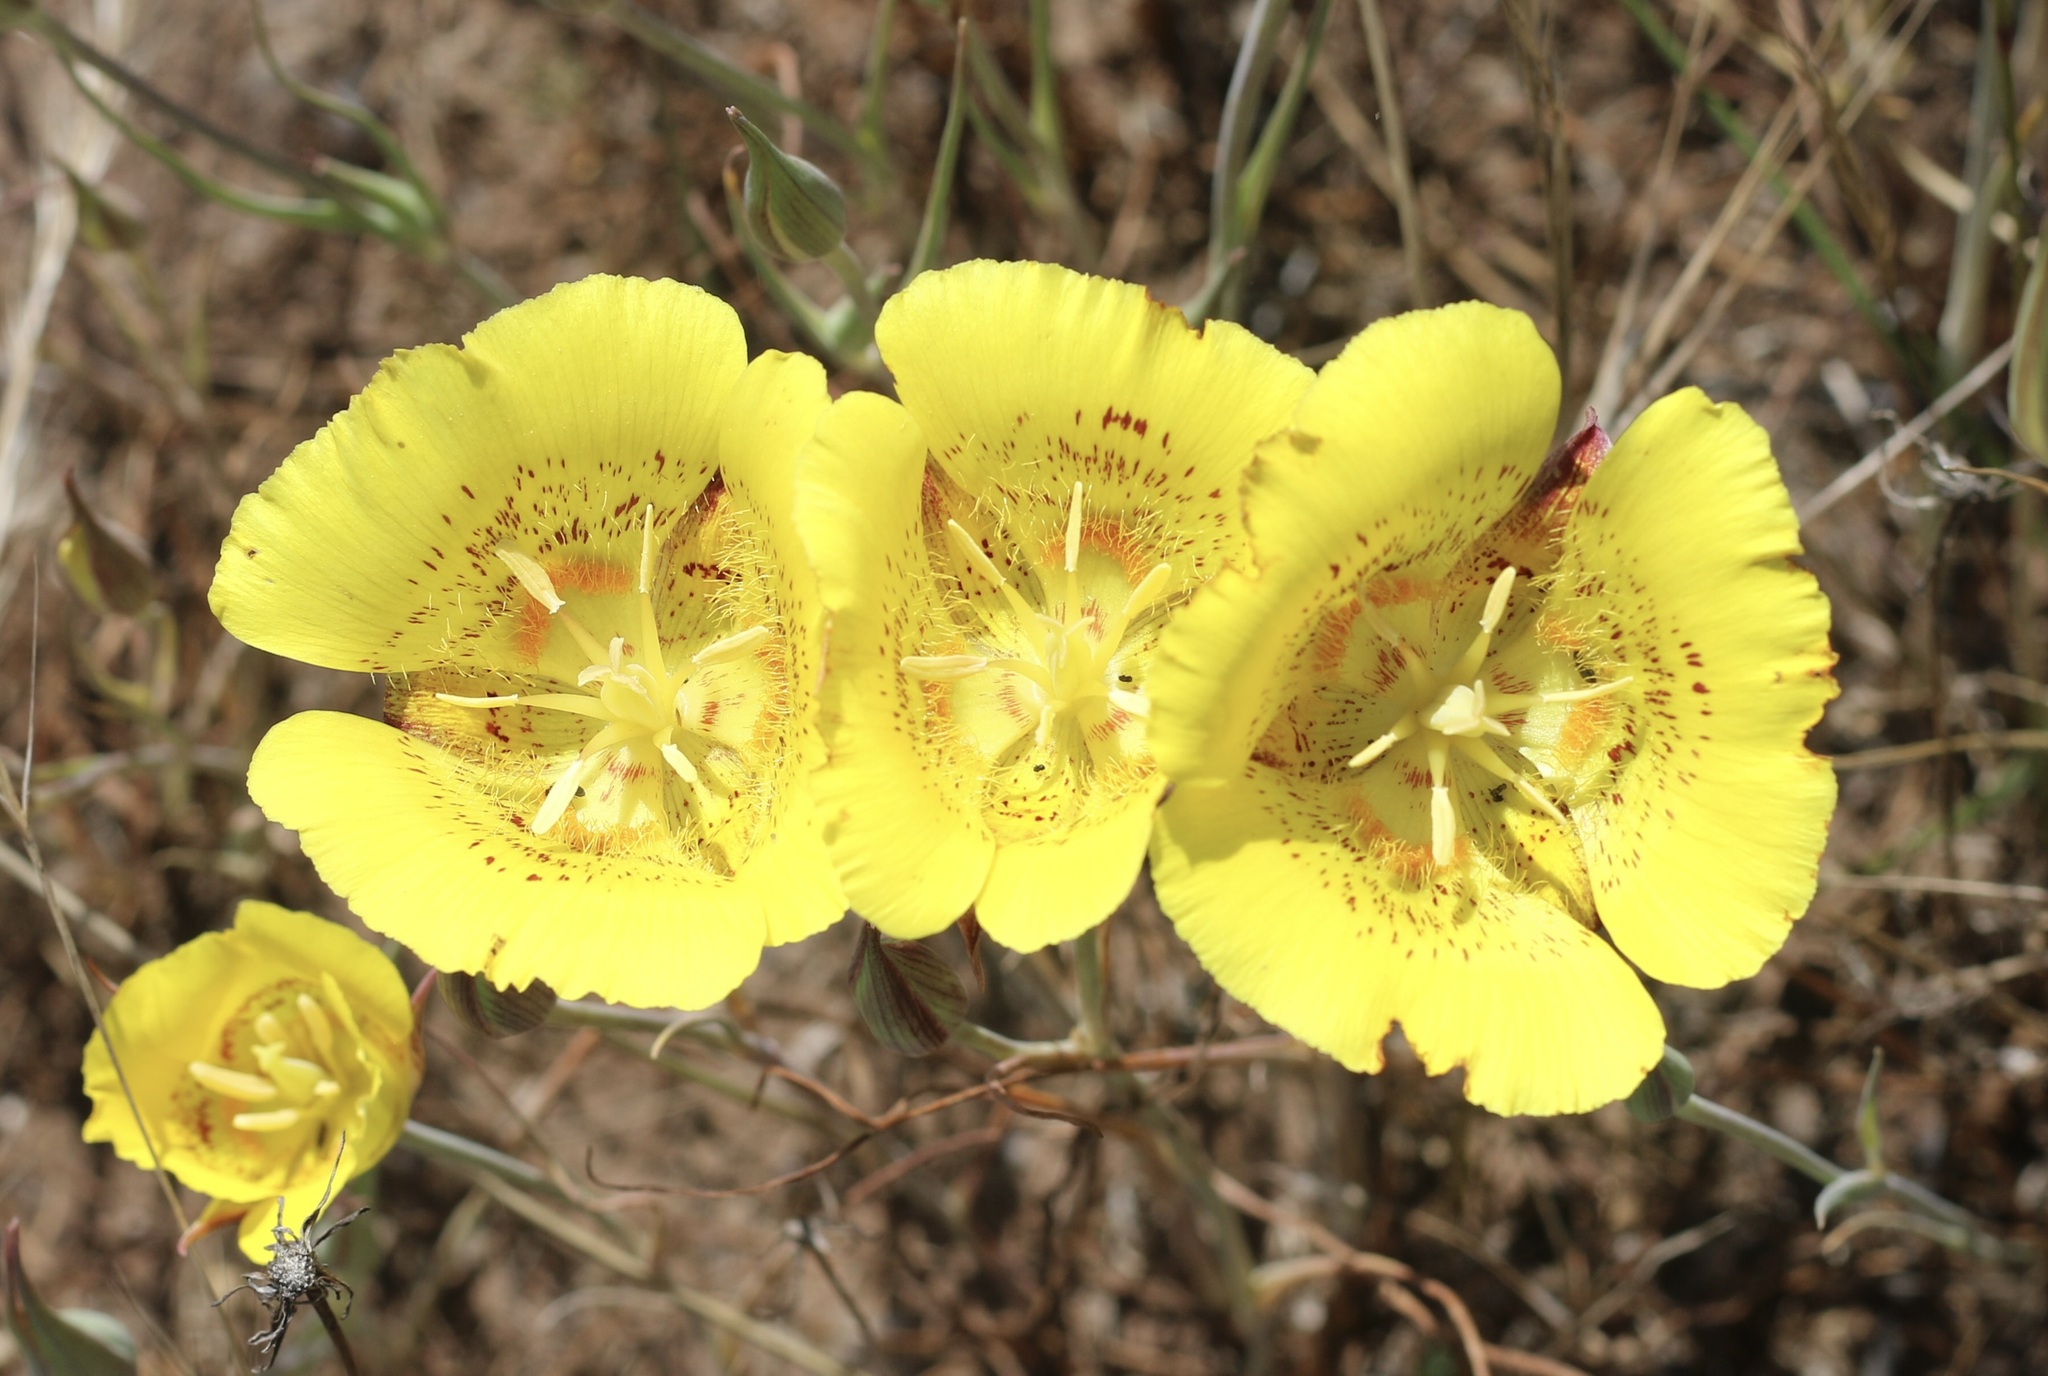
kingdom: Plantae
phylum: Tracheophyta
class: Liliopsida
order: Liliales
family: Liliaceae
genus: Calochortus
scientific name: Calochortus luteus
